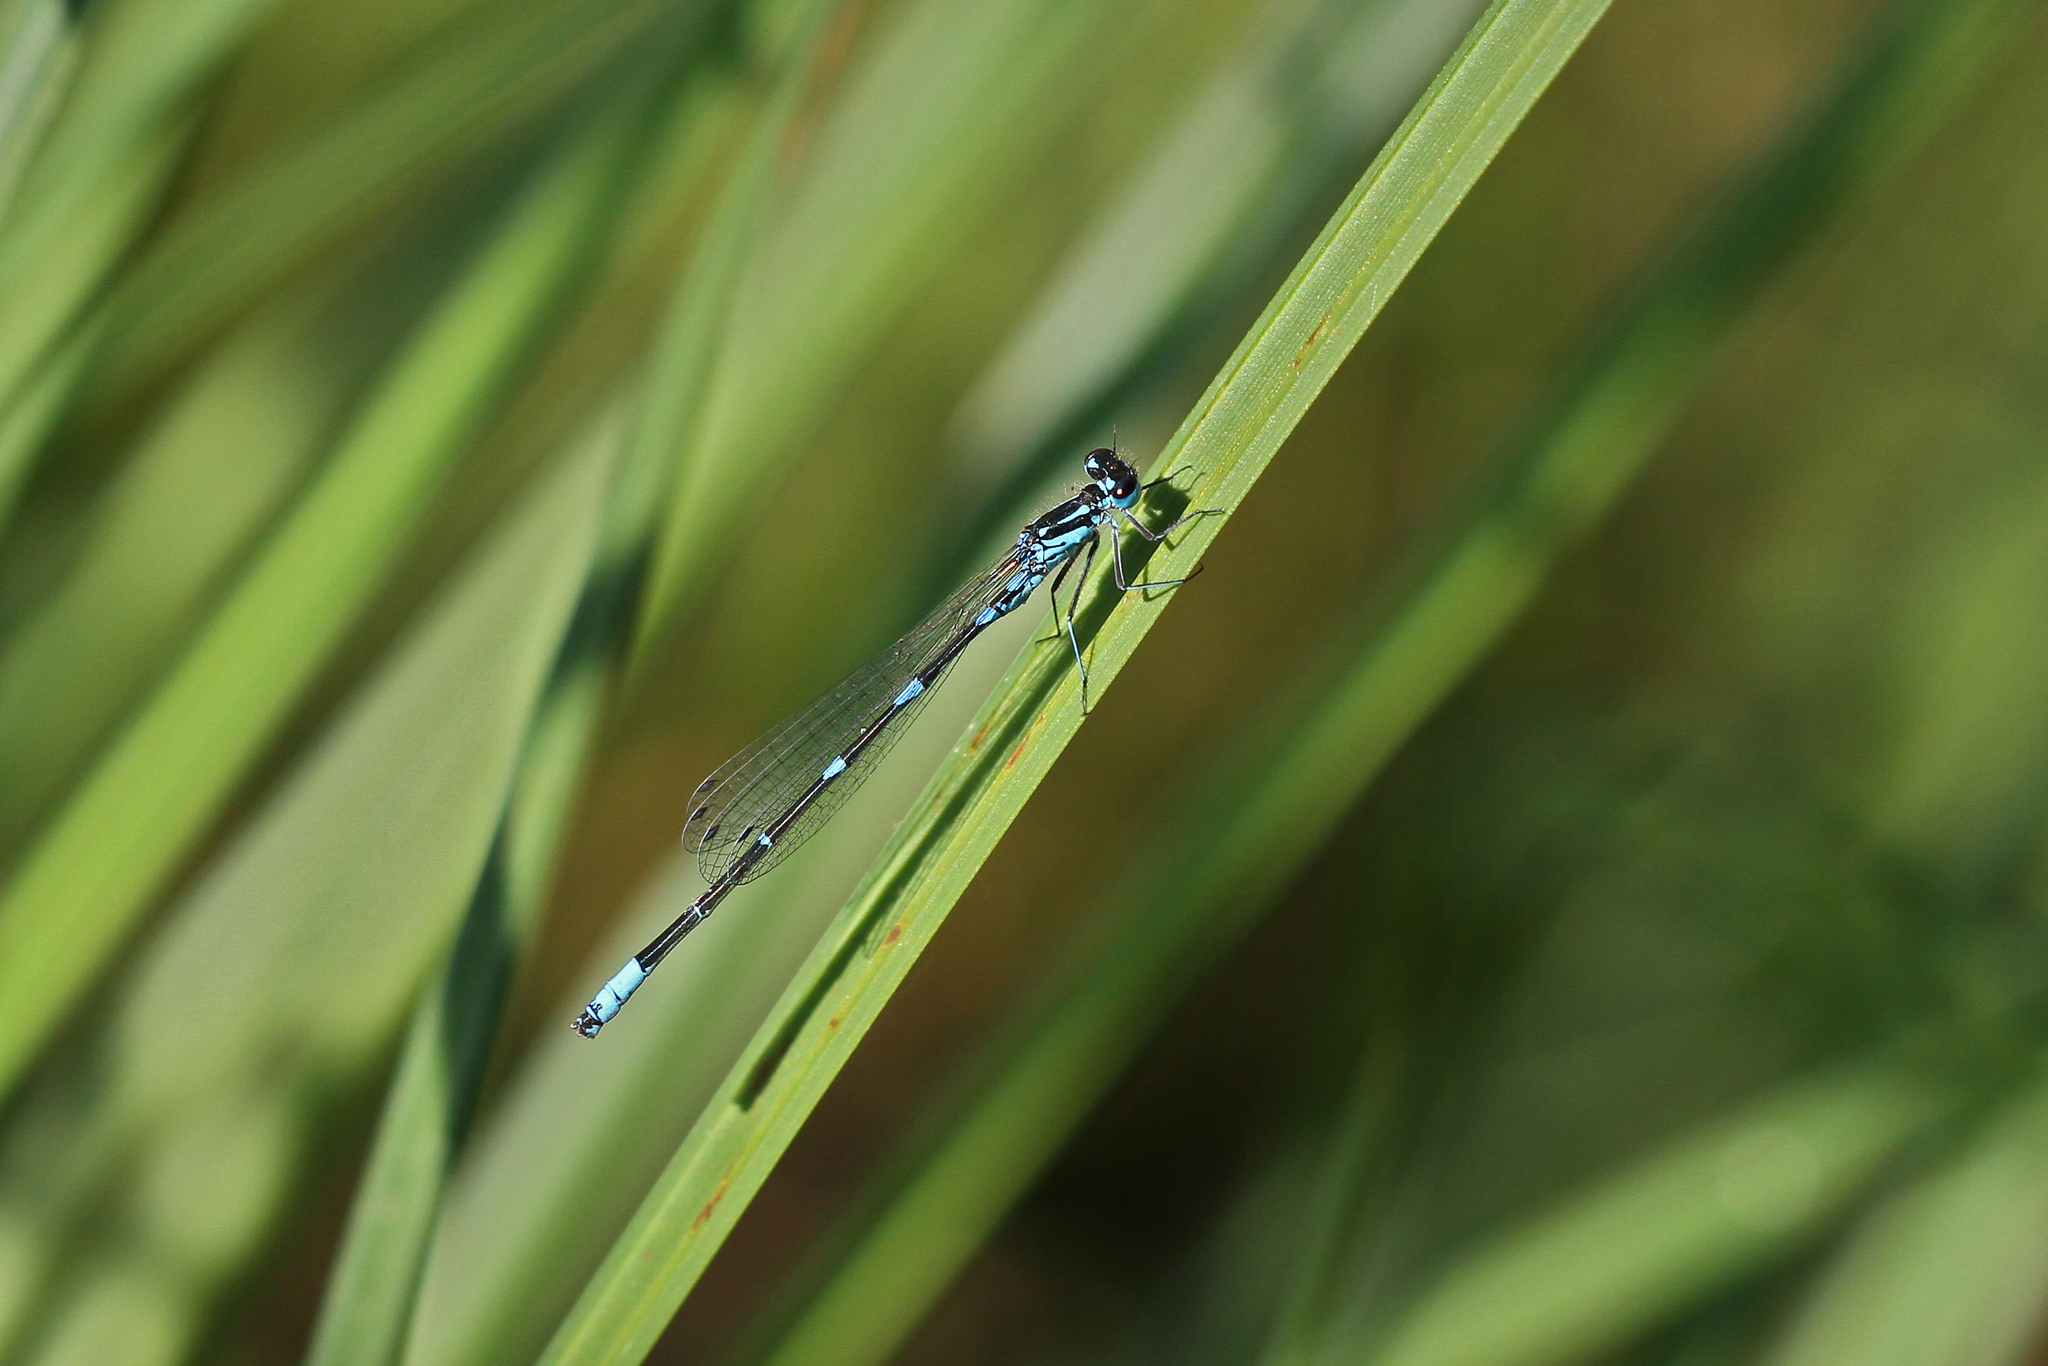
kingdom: Animalia
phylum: Arthropoda
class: Insecta
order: Odonata
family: Coenagrionidae
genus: Coenagrion
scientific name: Coenagrion pulchellum
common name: Variable bluet
